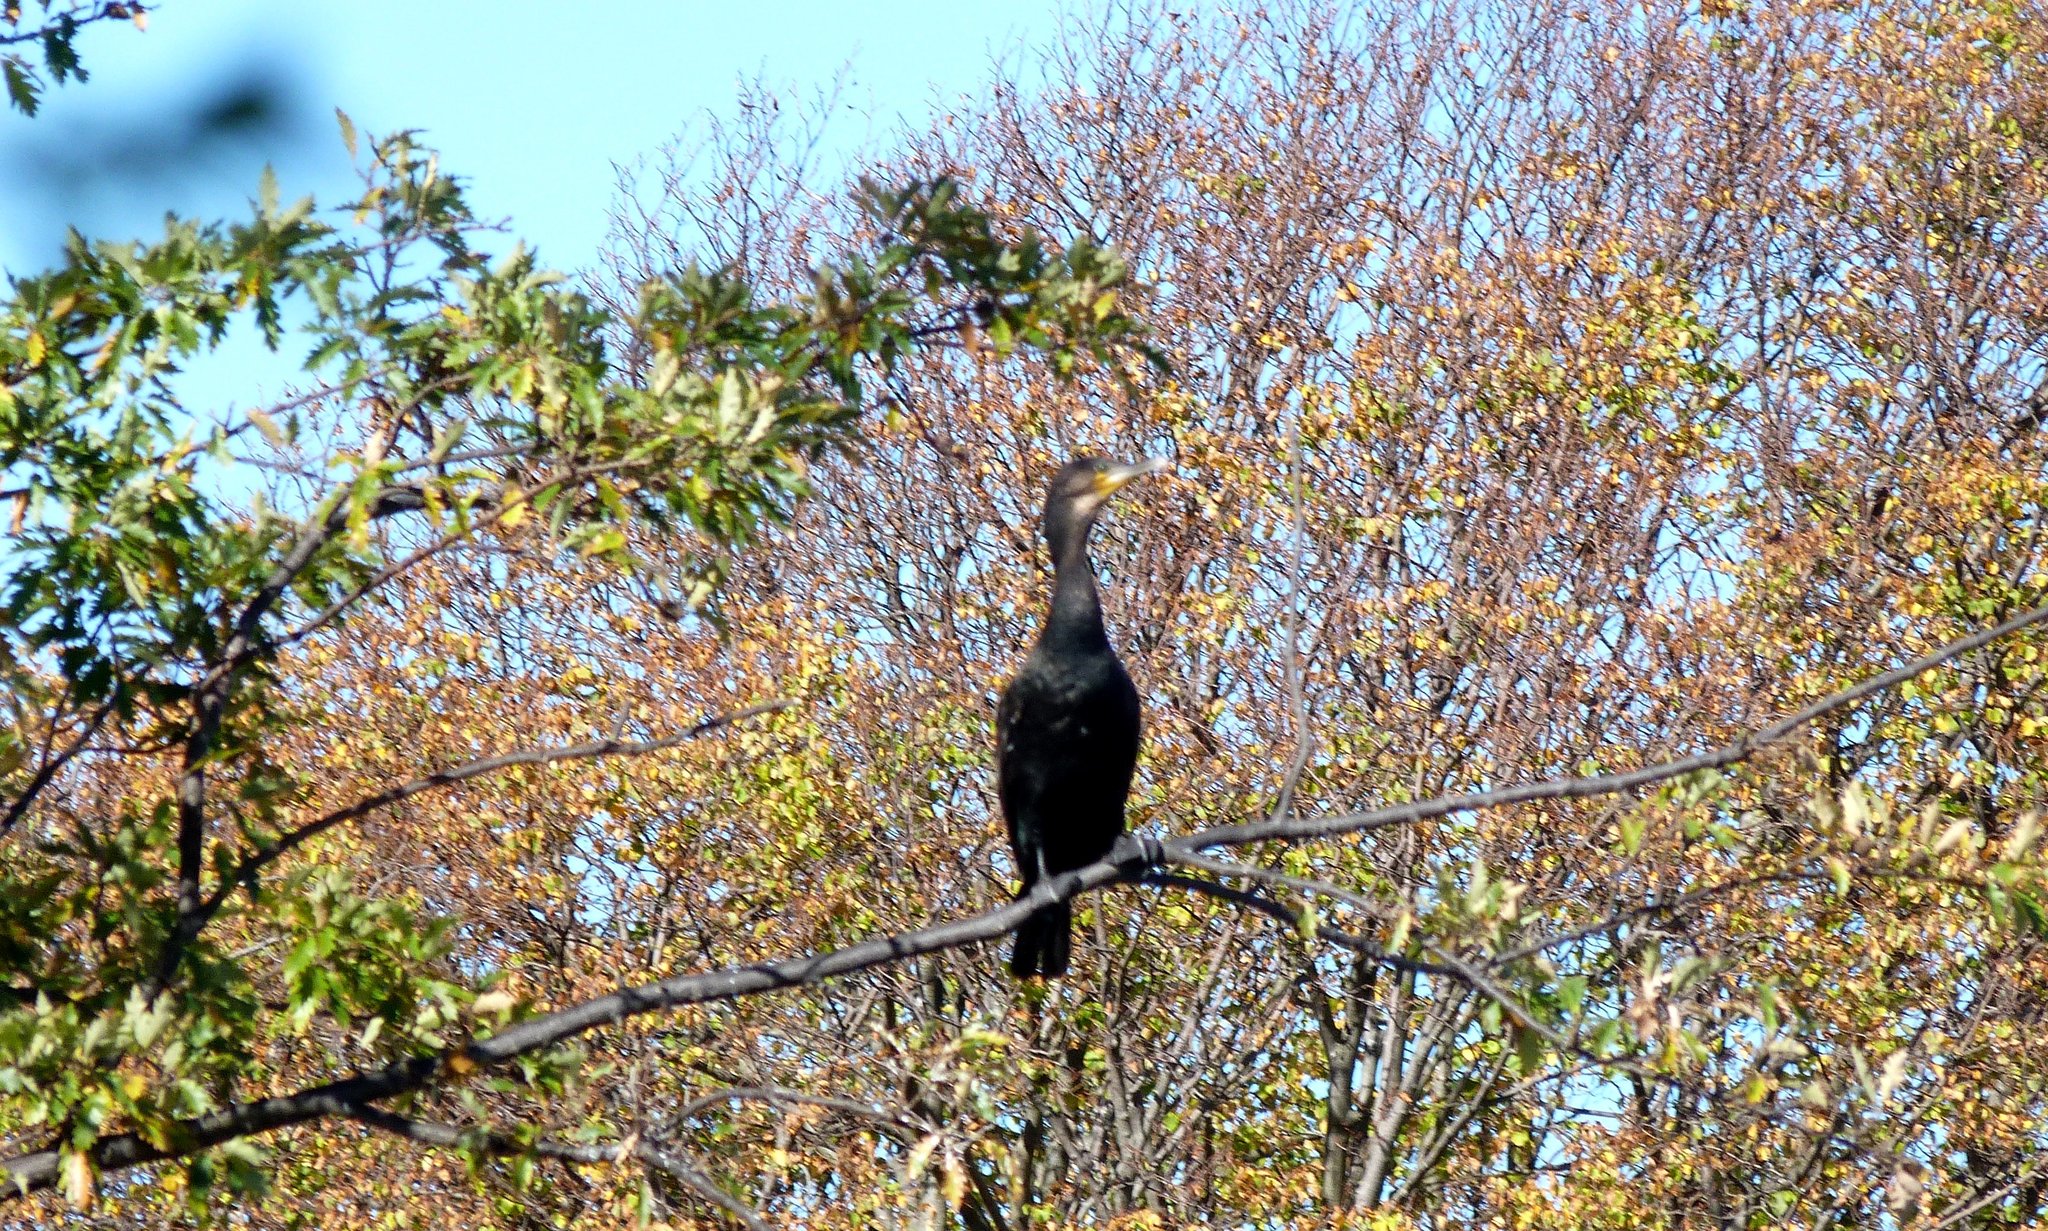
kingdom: Animalia
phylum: Chordata
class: Aves
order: Suliformes
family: Phalacrocoracidae
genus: Phalacrocorax
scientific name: Phalacrocorax carbo
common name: Great cormorant
